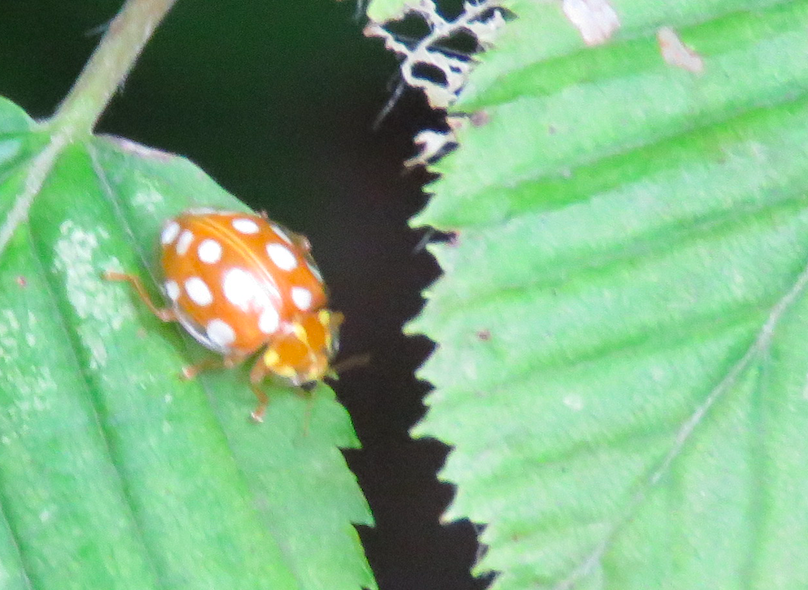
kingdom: Animalia
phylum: Arthropoda
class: Insecta
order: Coleoptera
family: Coccinellidae
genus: Halyzia
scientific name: Halyzia sedecimguttata
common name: Orange ladybird
